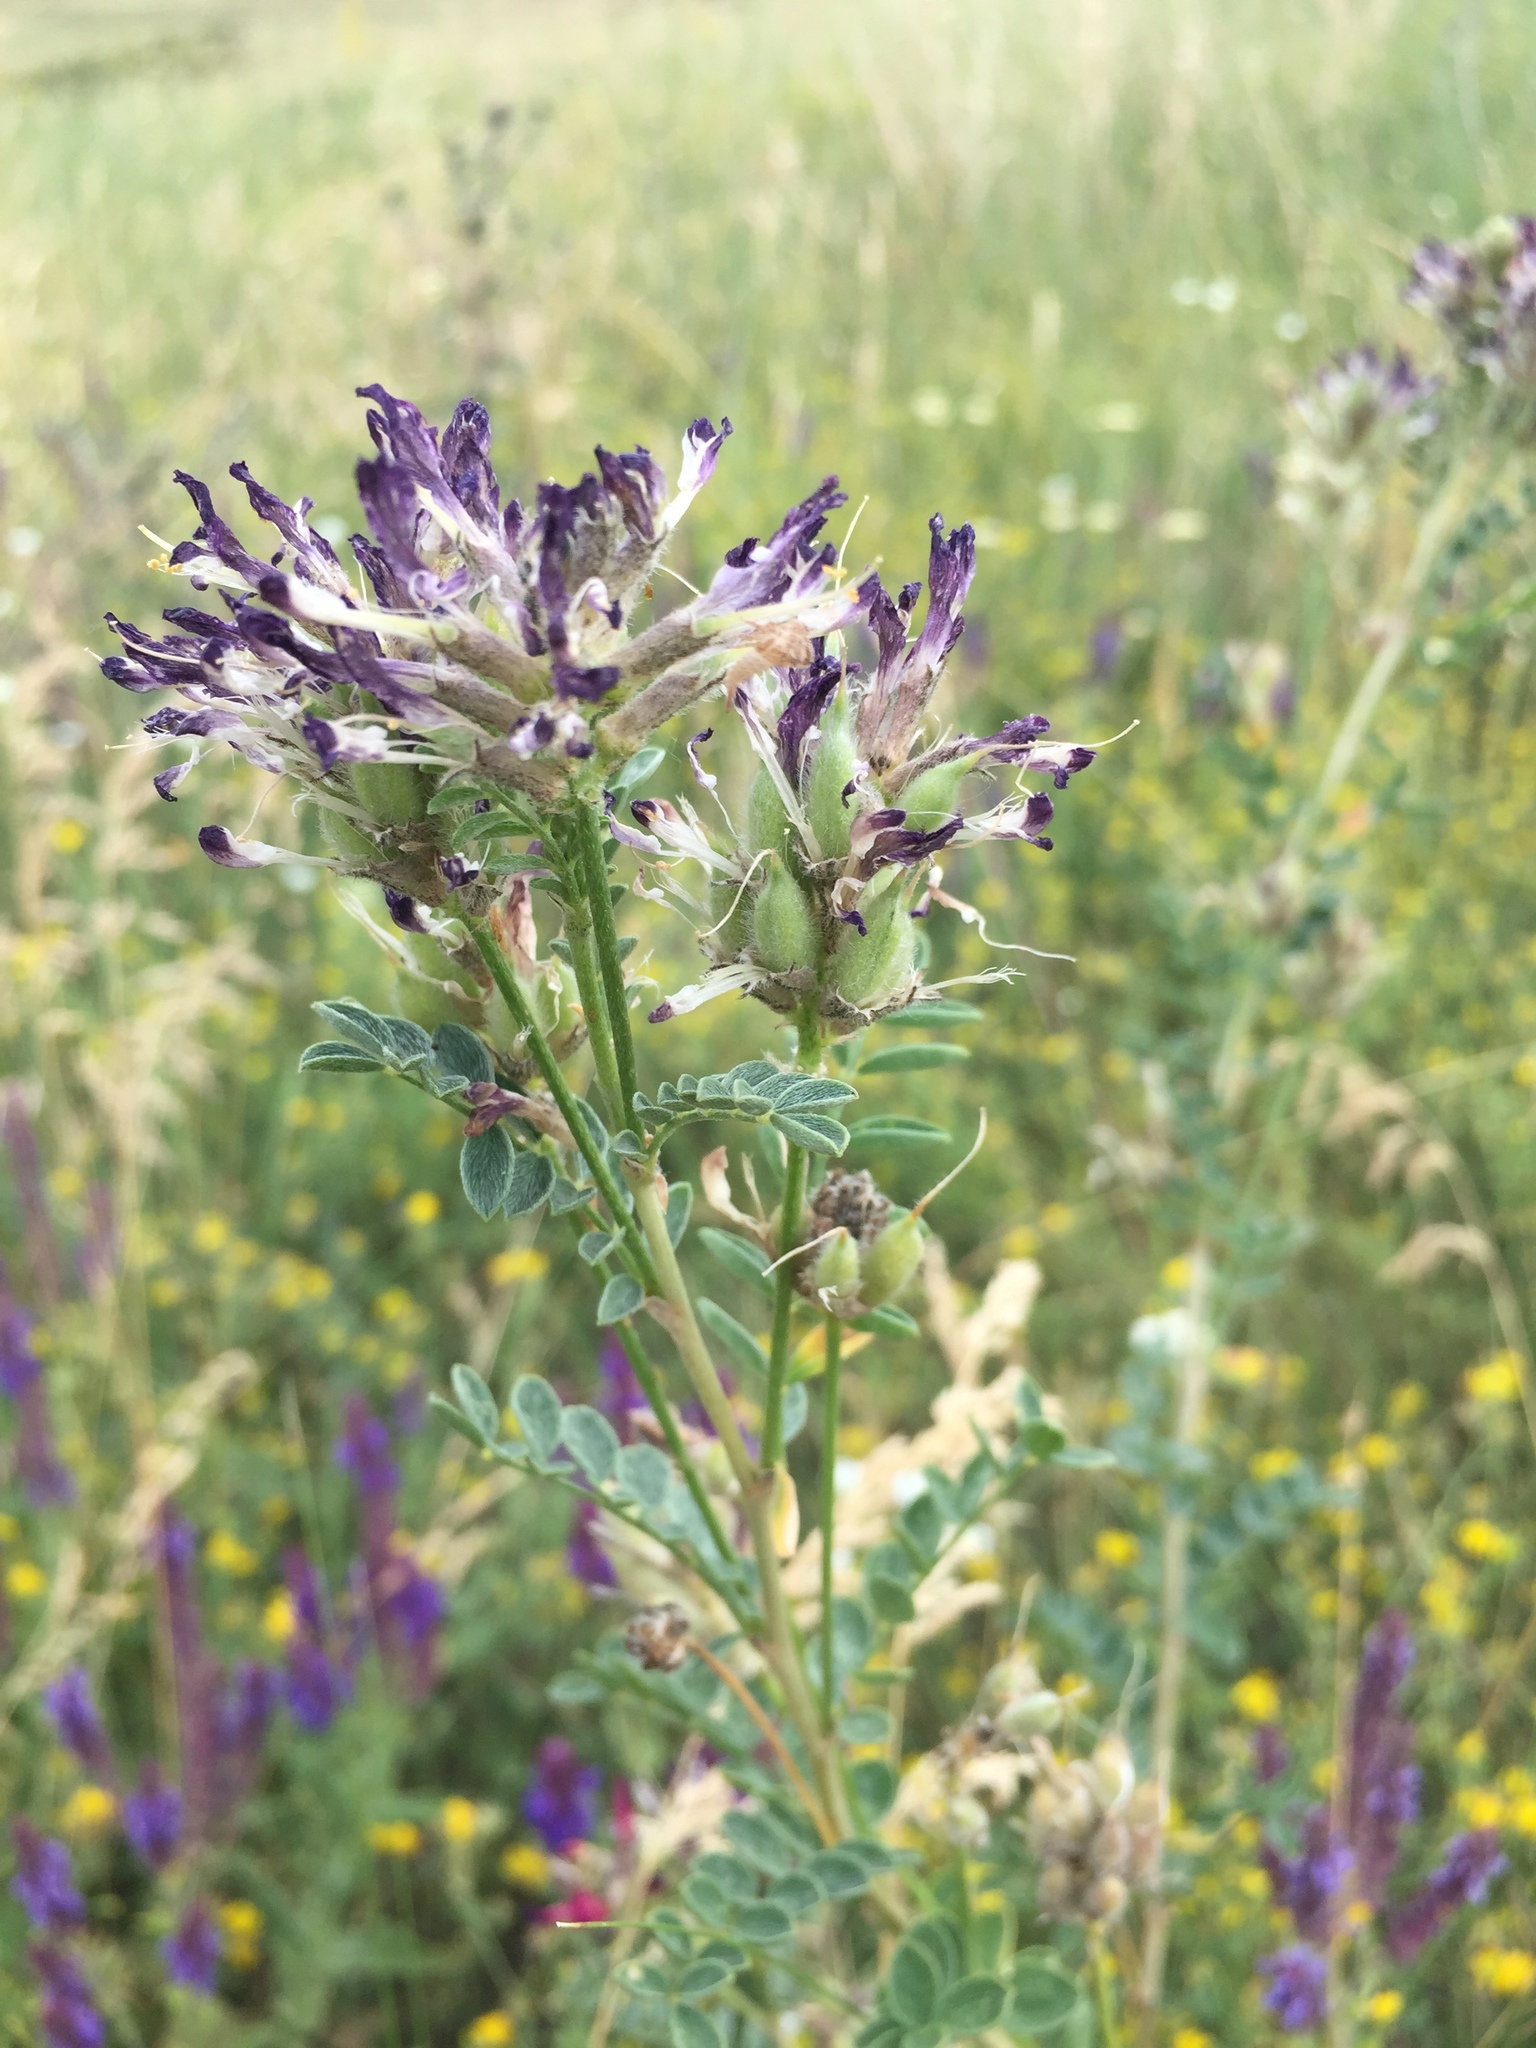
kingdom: Plantae
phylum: Tracheophyta
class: Magnoliopsida
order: Fabales
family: Fabaceae
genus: Astragalus
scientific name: Astragalus cornutus
